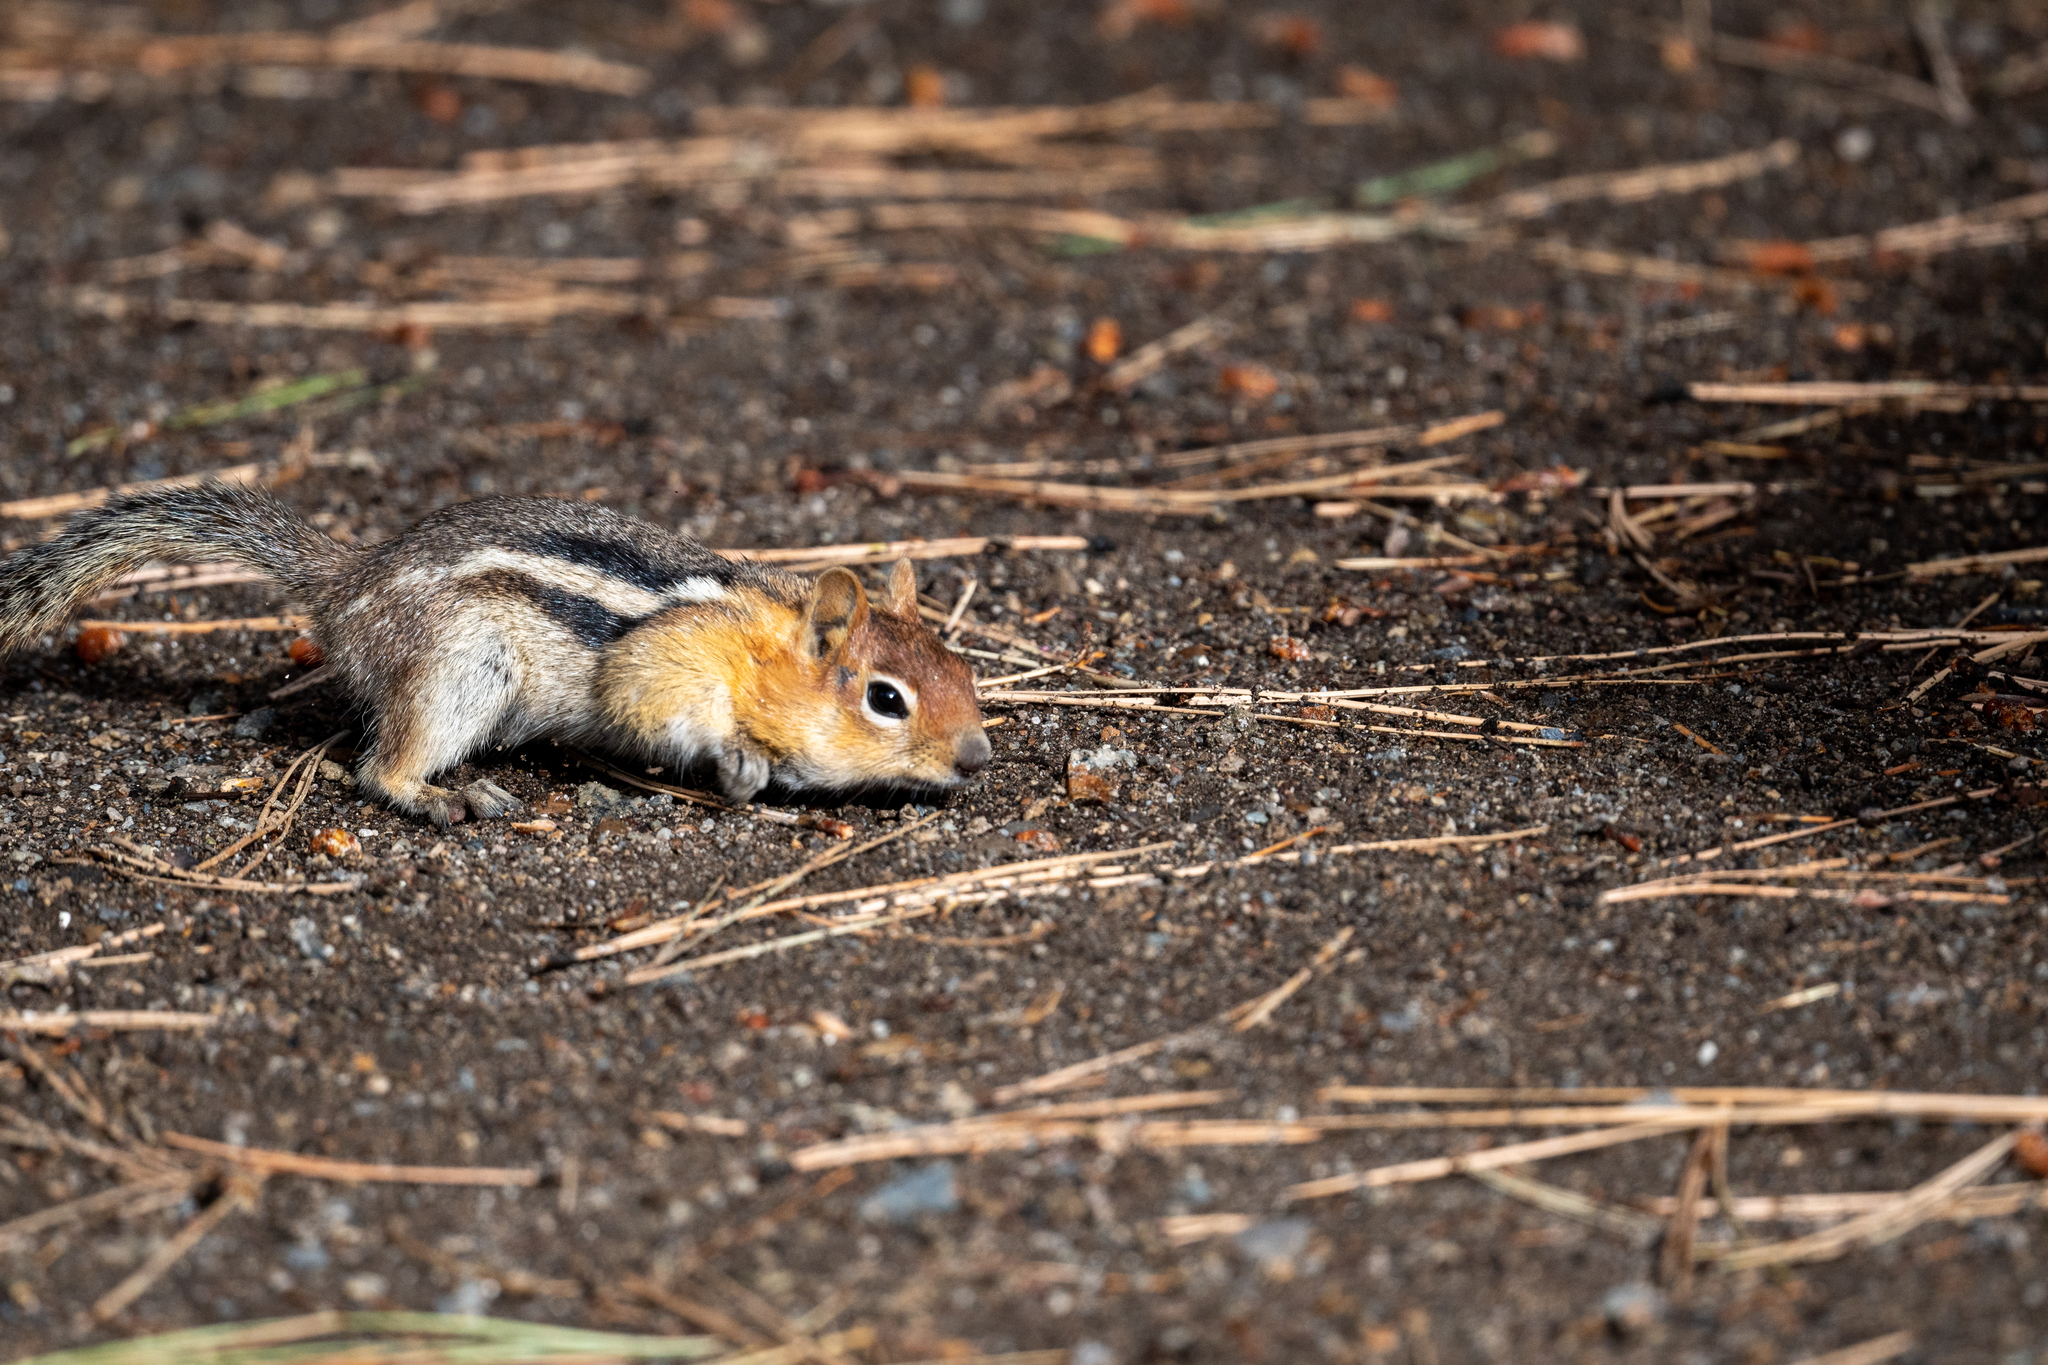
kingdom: Animalia
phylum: Chordata
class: Mammalia
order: Rodentia
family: Sciuridae
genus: Callospermophilus
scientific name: Callospermophilus lateralis
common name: Golden-mantled ground squirrel
